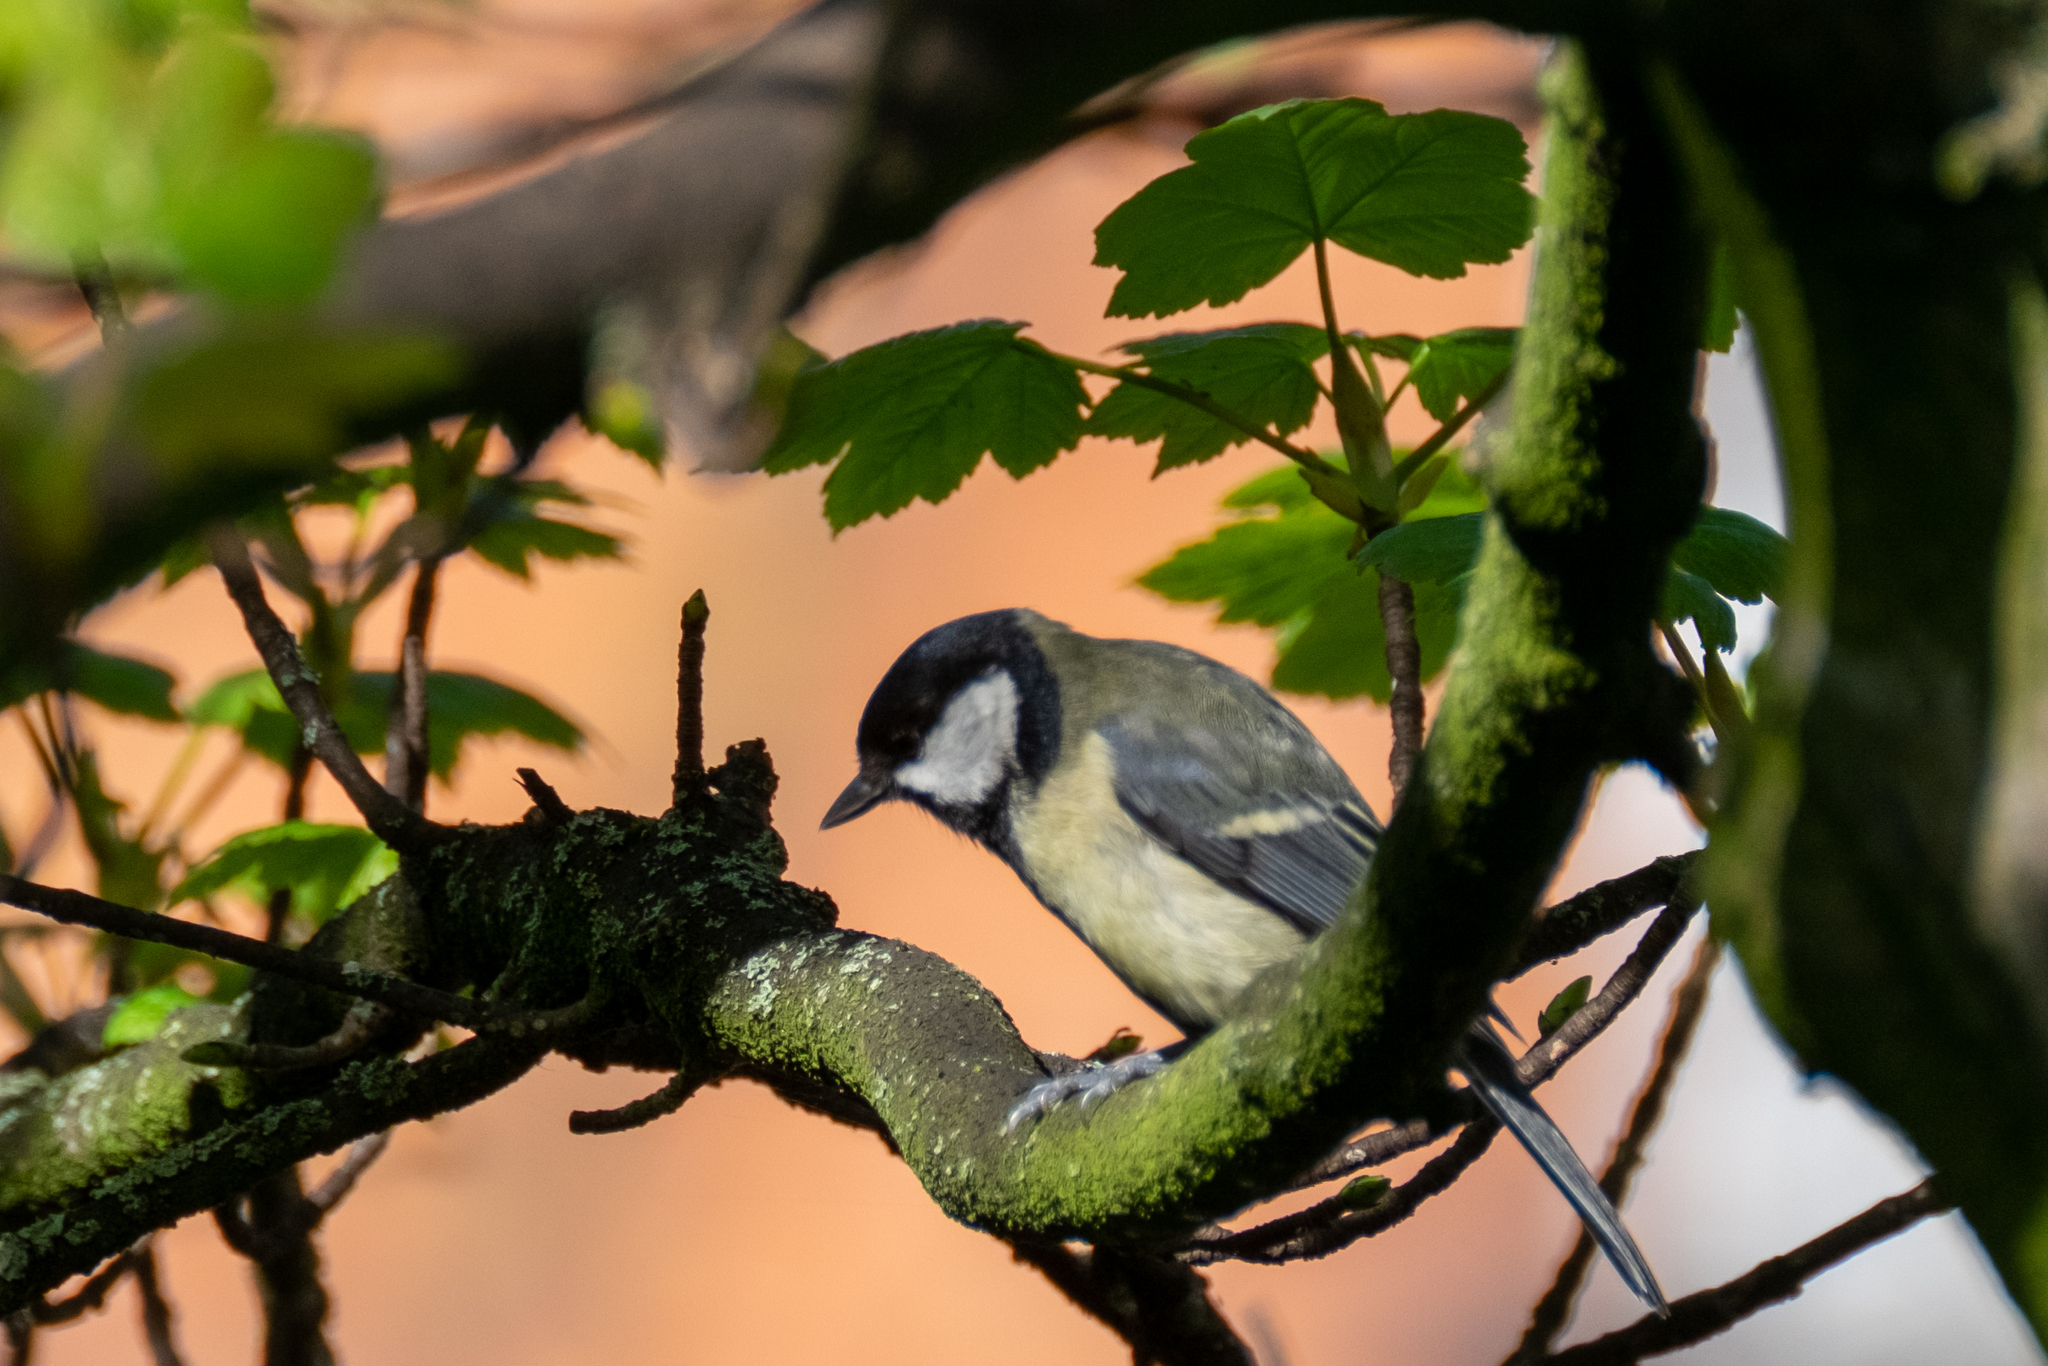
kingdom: Animalia
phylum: Chordata
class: Aves
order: Passeriformes
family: Paridae
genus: Parus
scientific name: Parus major
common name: Great tit
